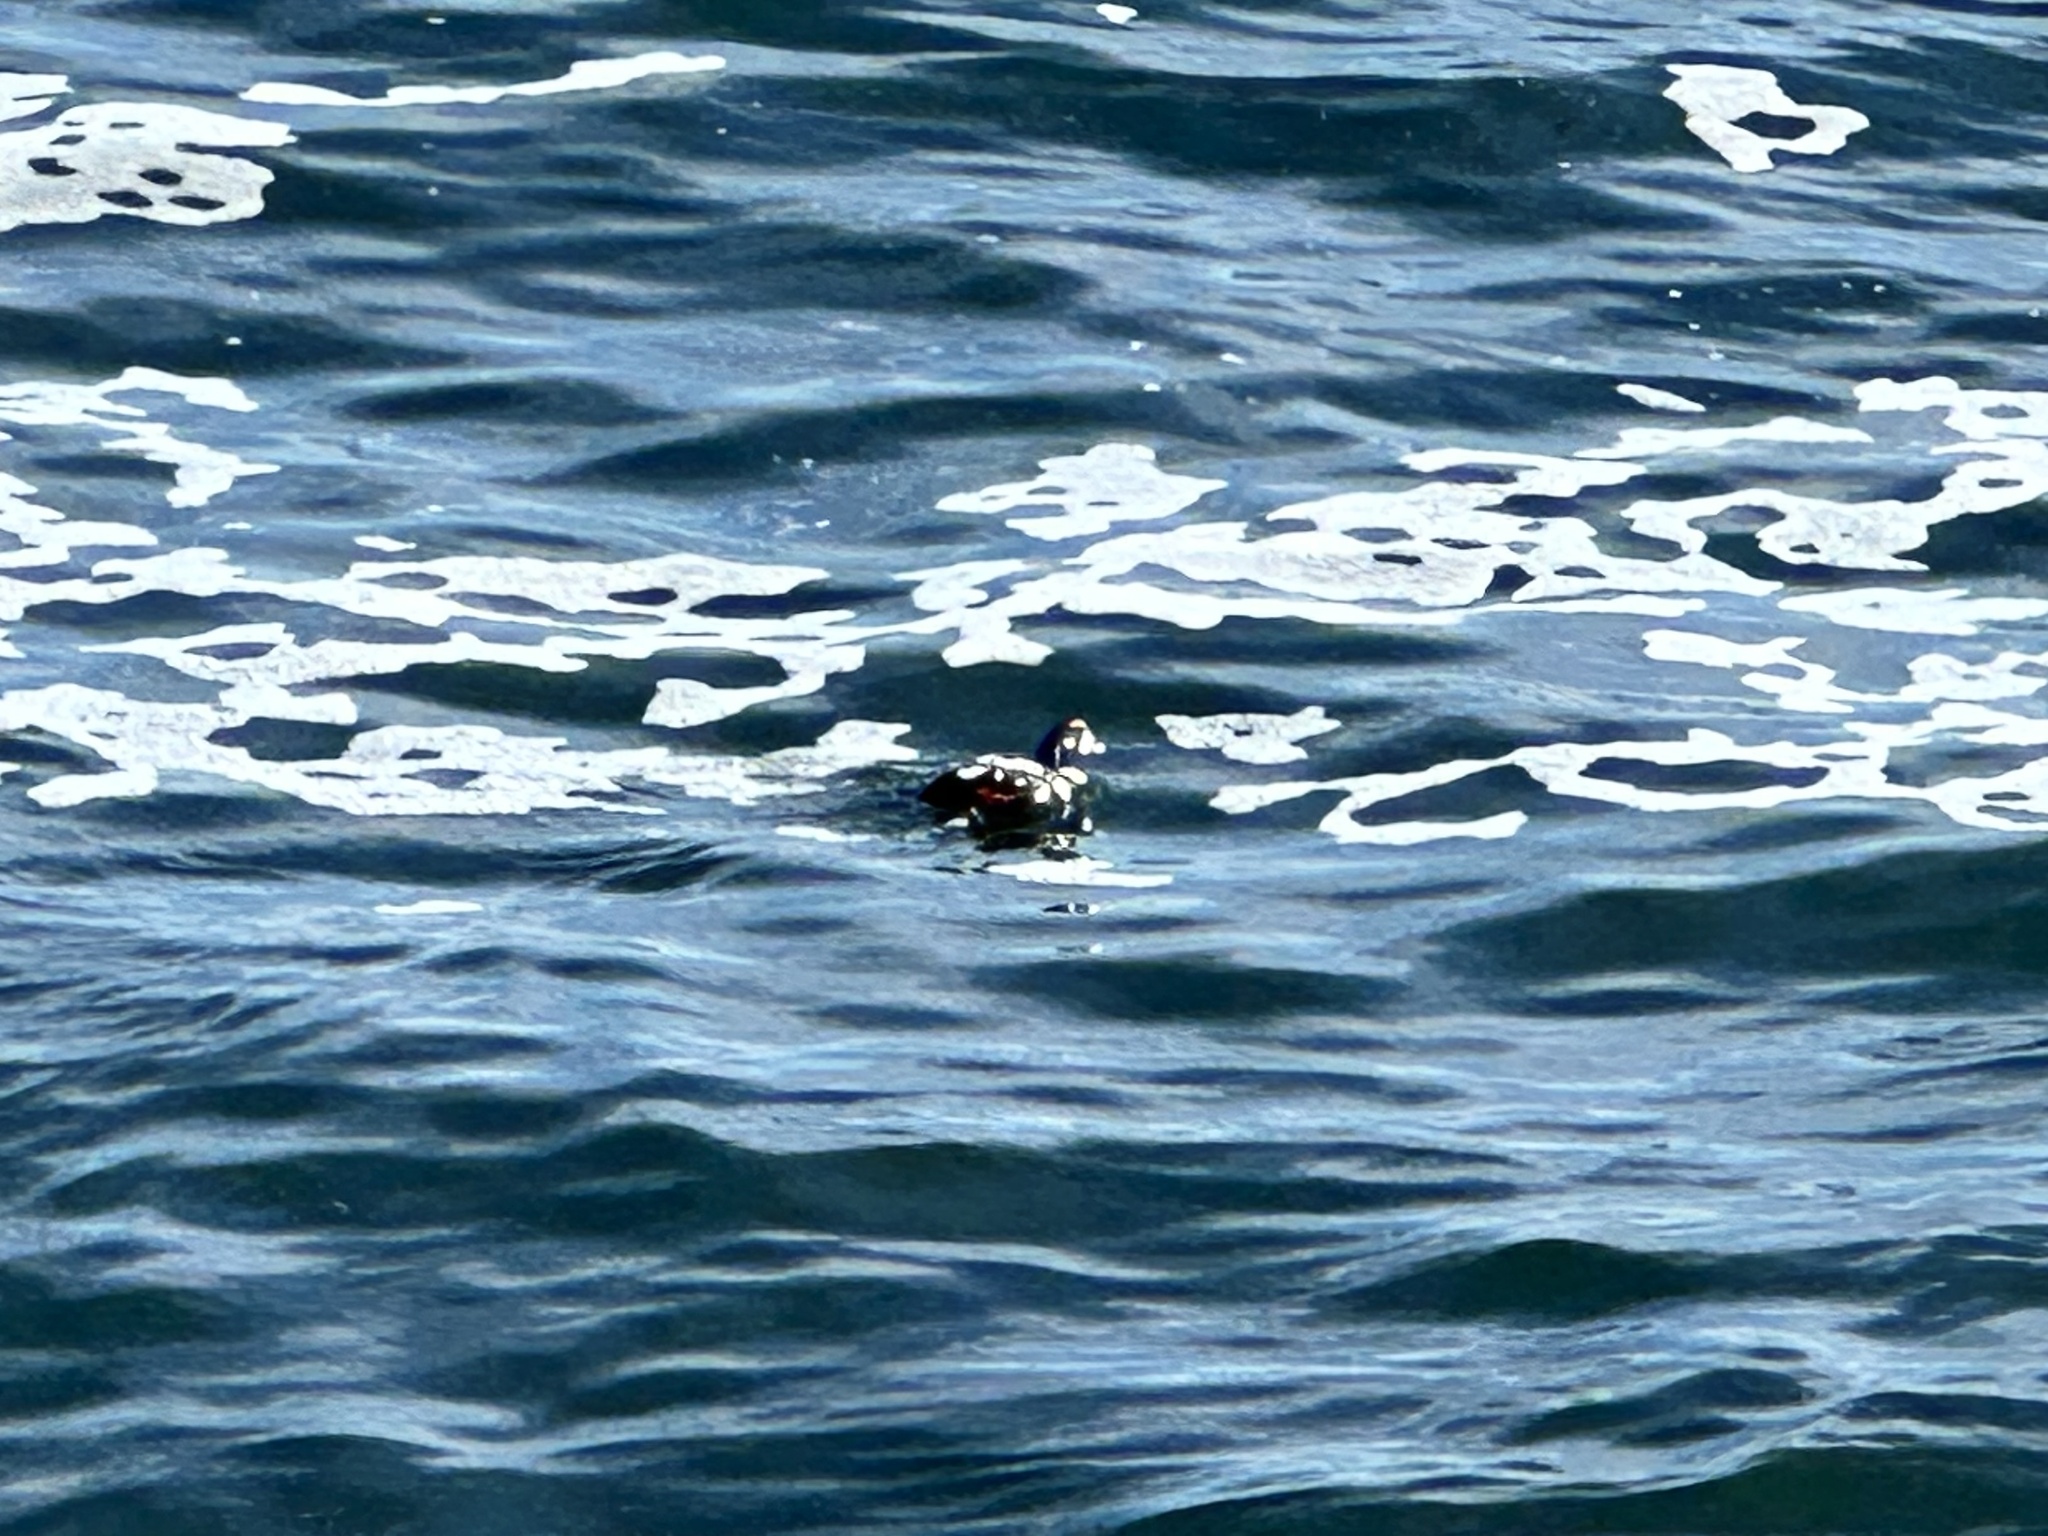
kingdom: Animalia
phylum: Chordata
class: Aves
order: Anseriformes
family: Anatidae
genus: Histrionicus
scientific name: Histrionicus histrionicus
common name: Harlequin duck
